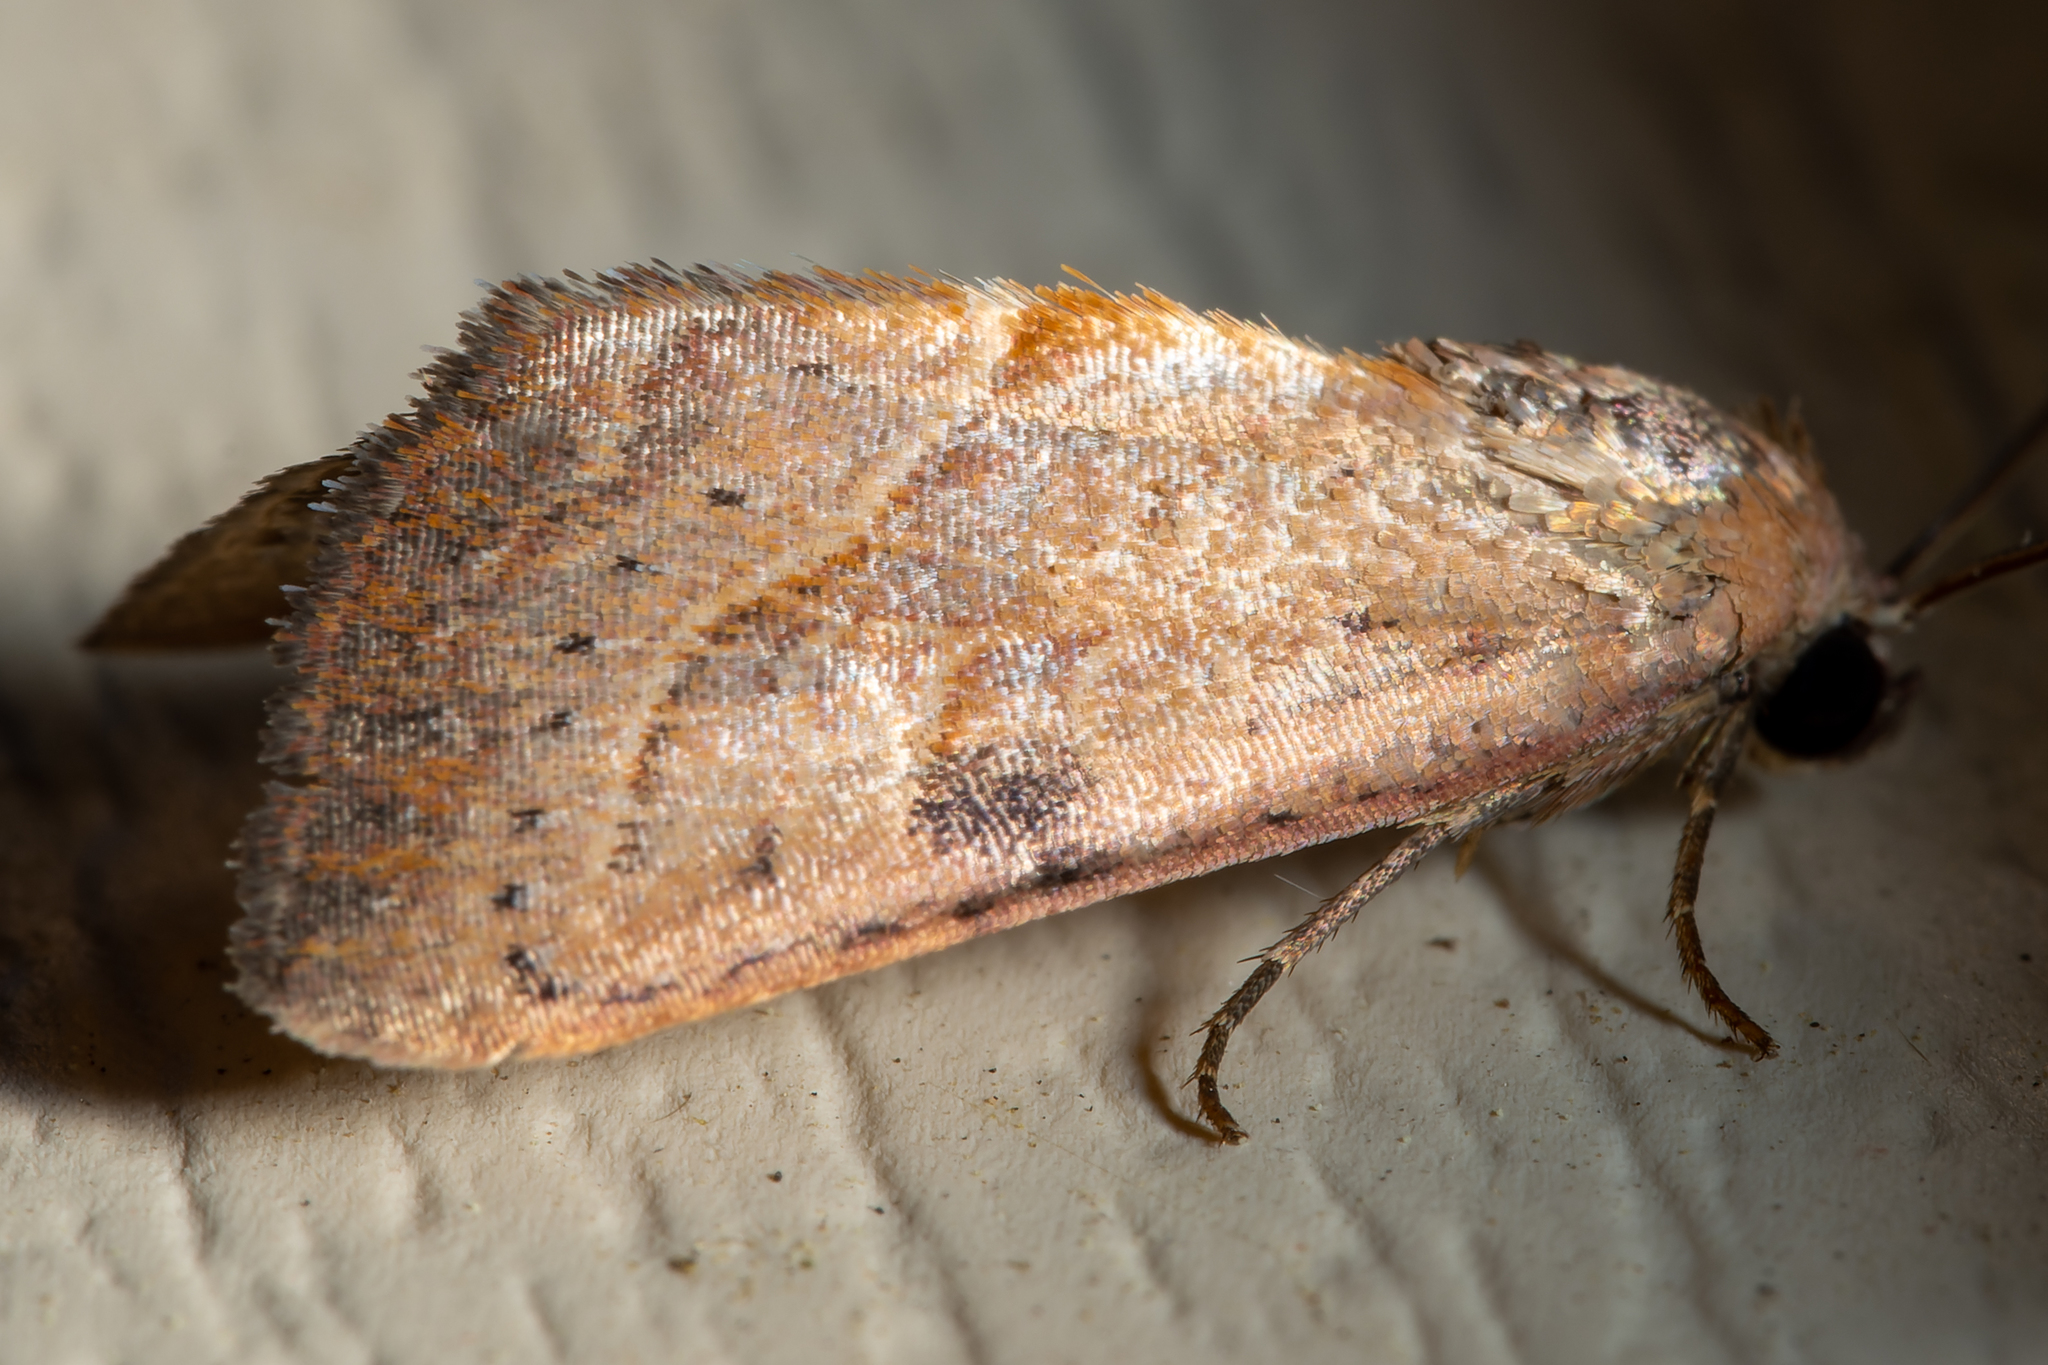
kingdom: Animalia
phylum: Arthropoda
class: Insecta
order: Lepidoptera
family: Noctuidae
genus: Galgula
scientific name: Galgula partita
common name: Wedgeling
